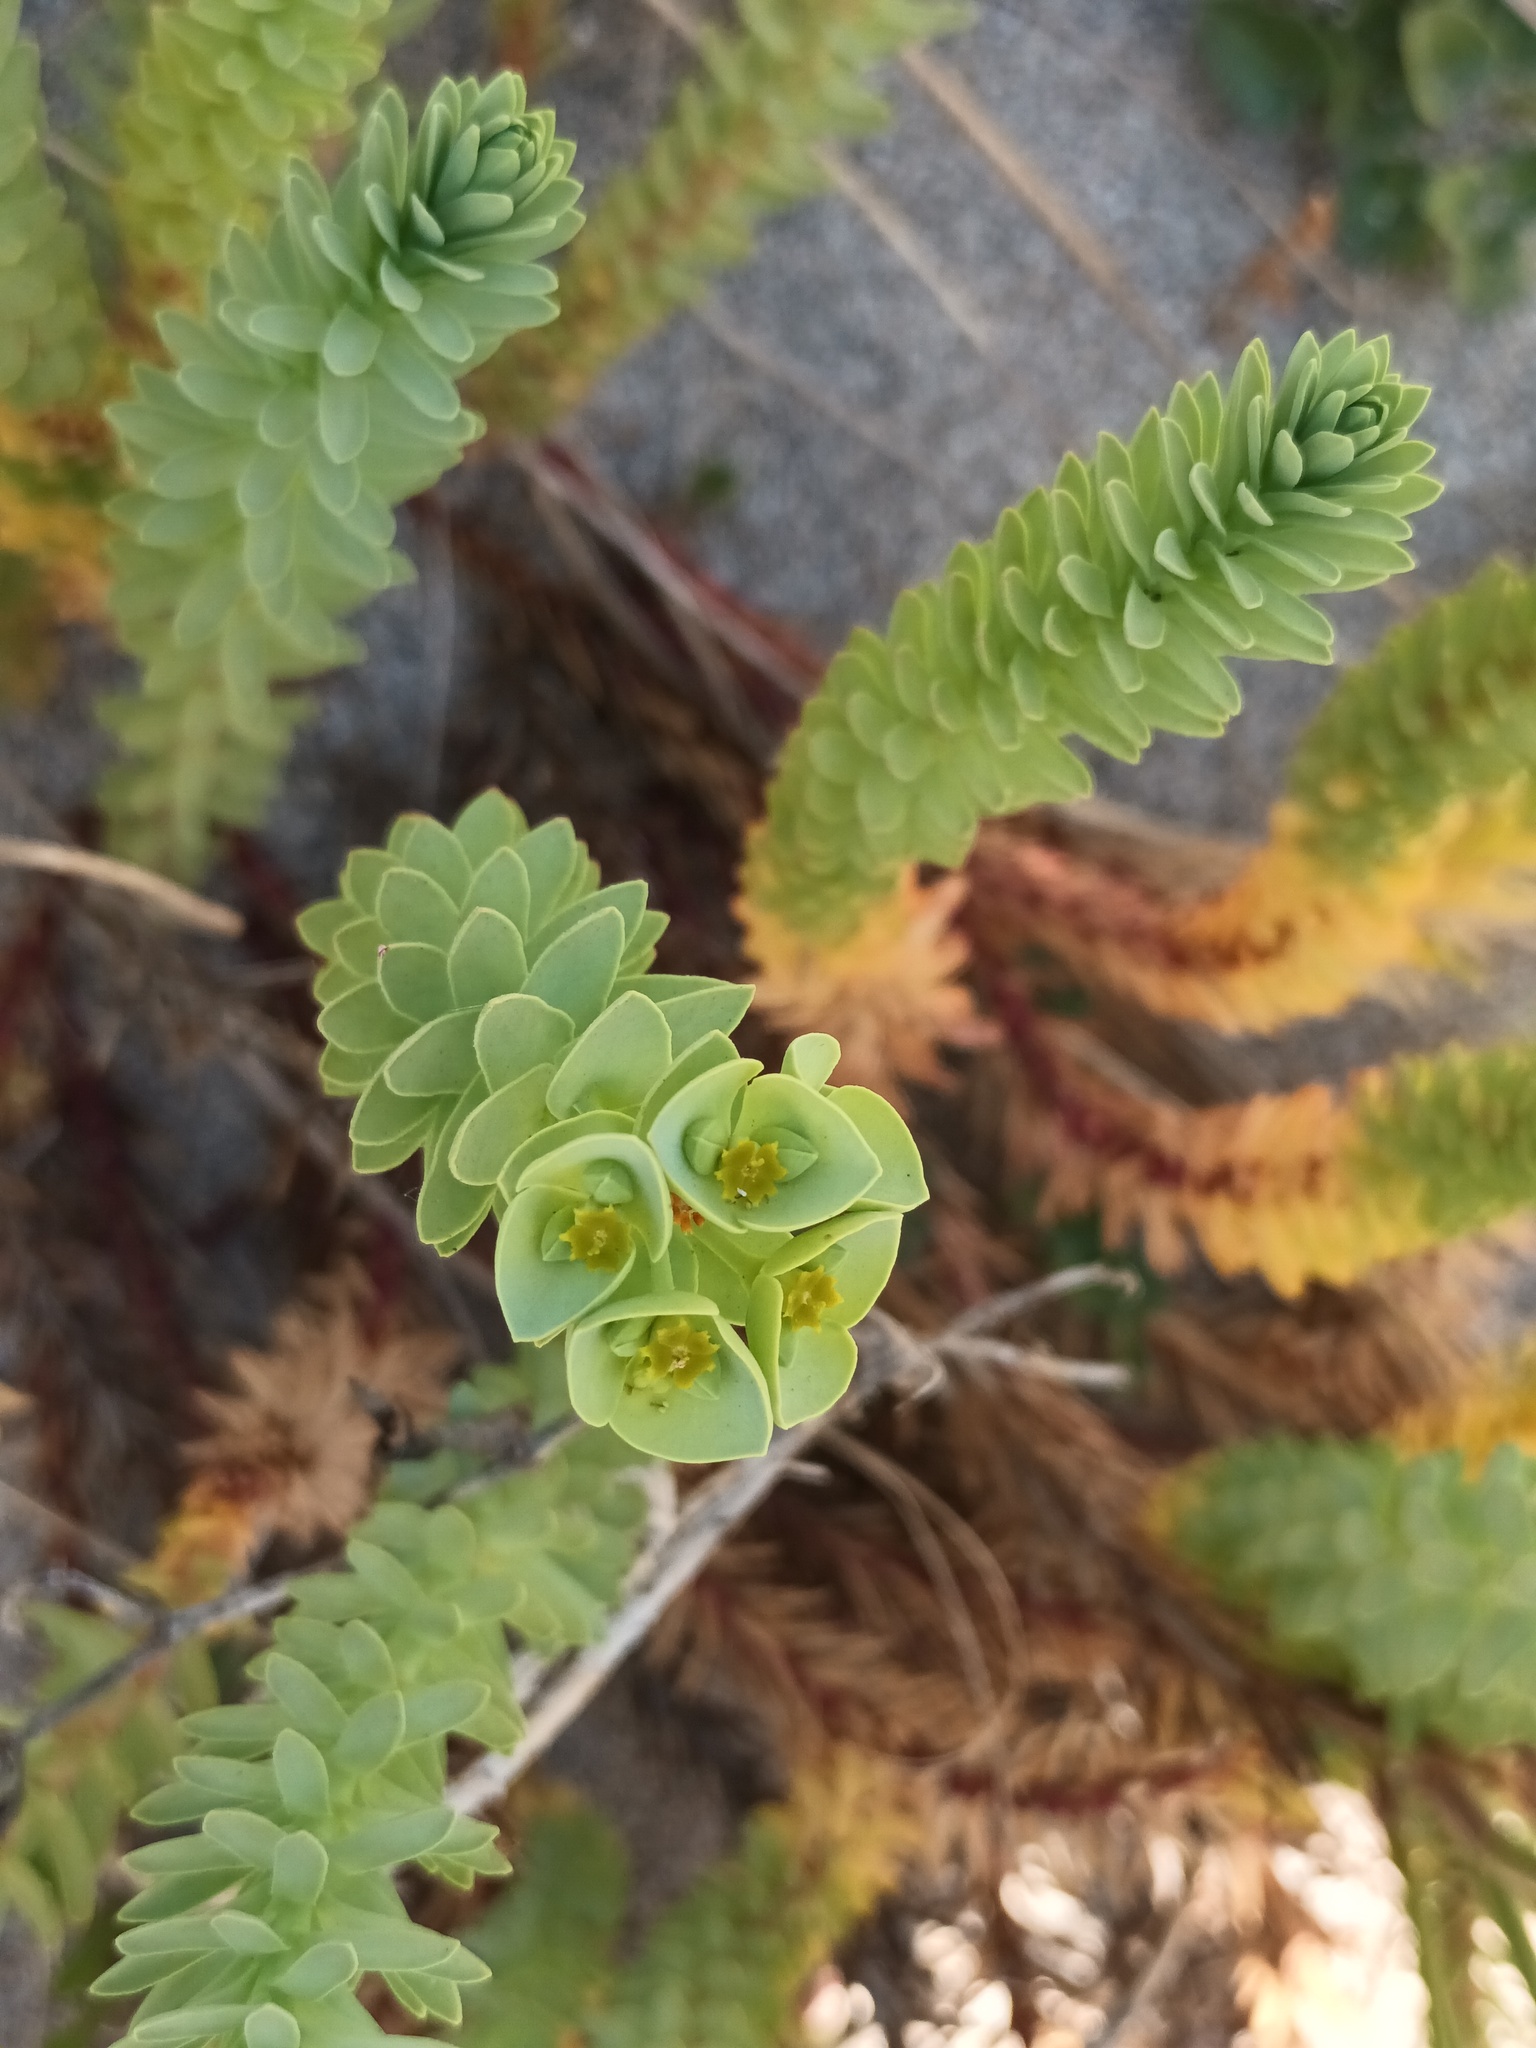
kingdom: Plantae
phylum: Tracheophyta
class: Magnoliopsida
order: Malpighiales
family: Euphorbiaceae
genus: Euphorbia
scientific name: Euphorbia paralias
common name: Sea spurge
